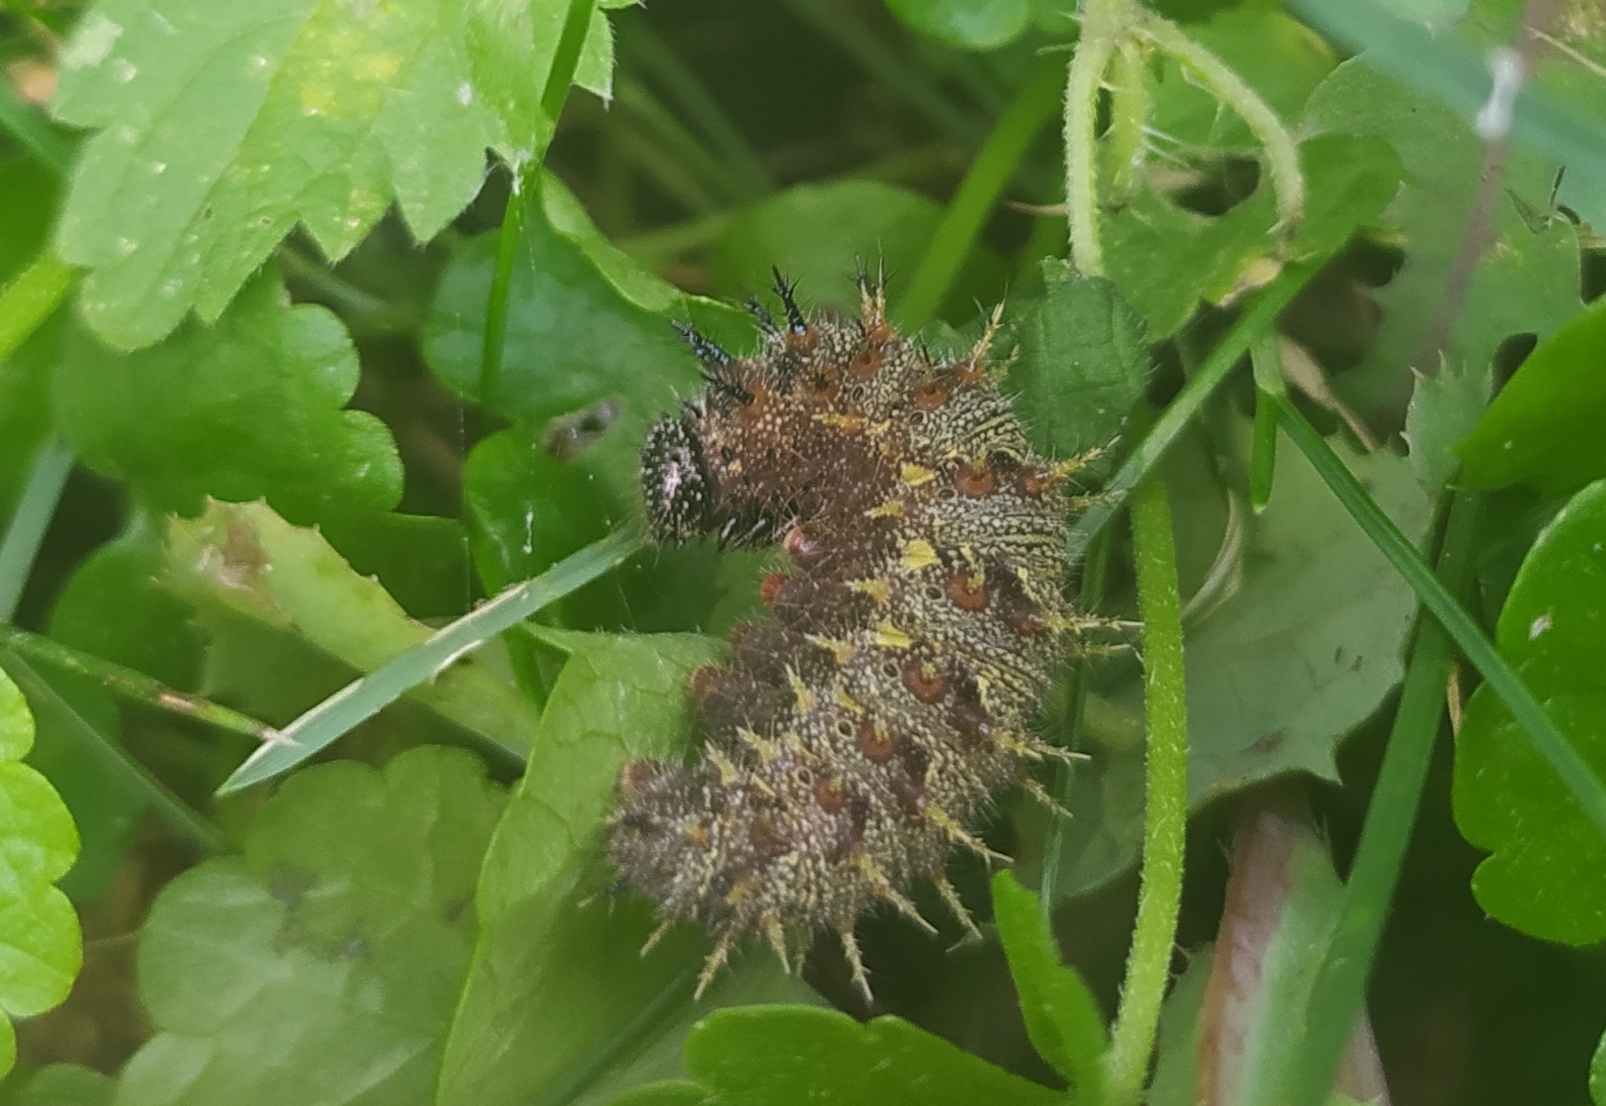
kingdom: Animalia
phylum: Arthropoda
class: Insecta
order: Lepidoptera
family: Nymphalidae
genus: Vanessa
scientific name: Vanessa atalanta
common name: Red admiral
